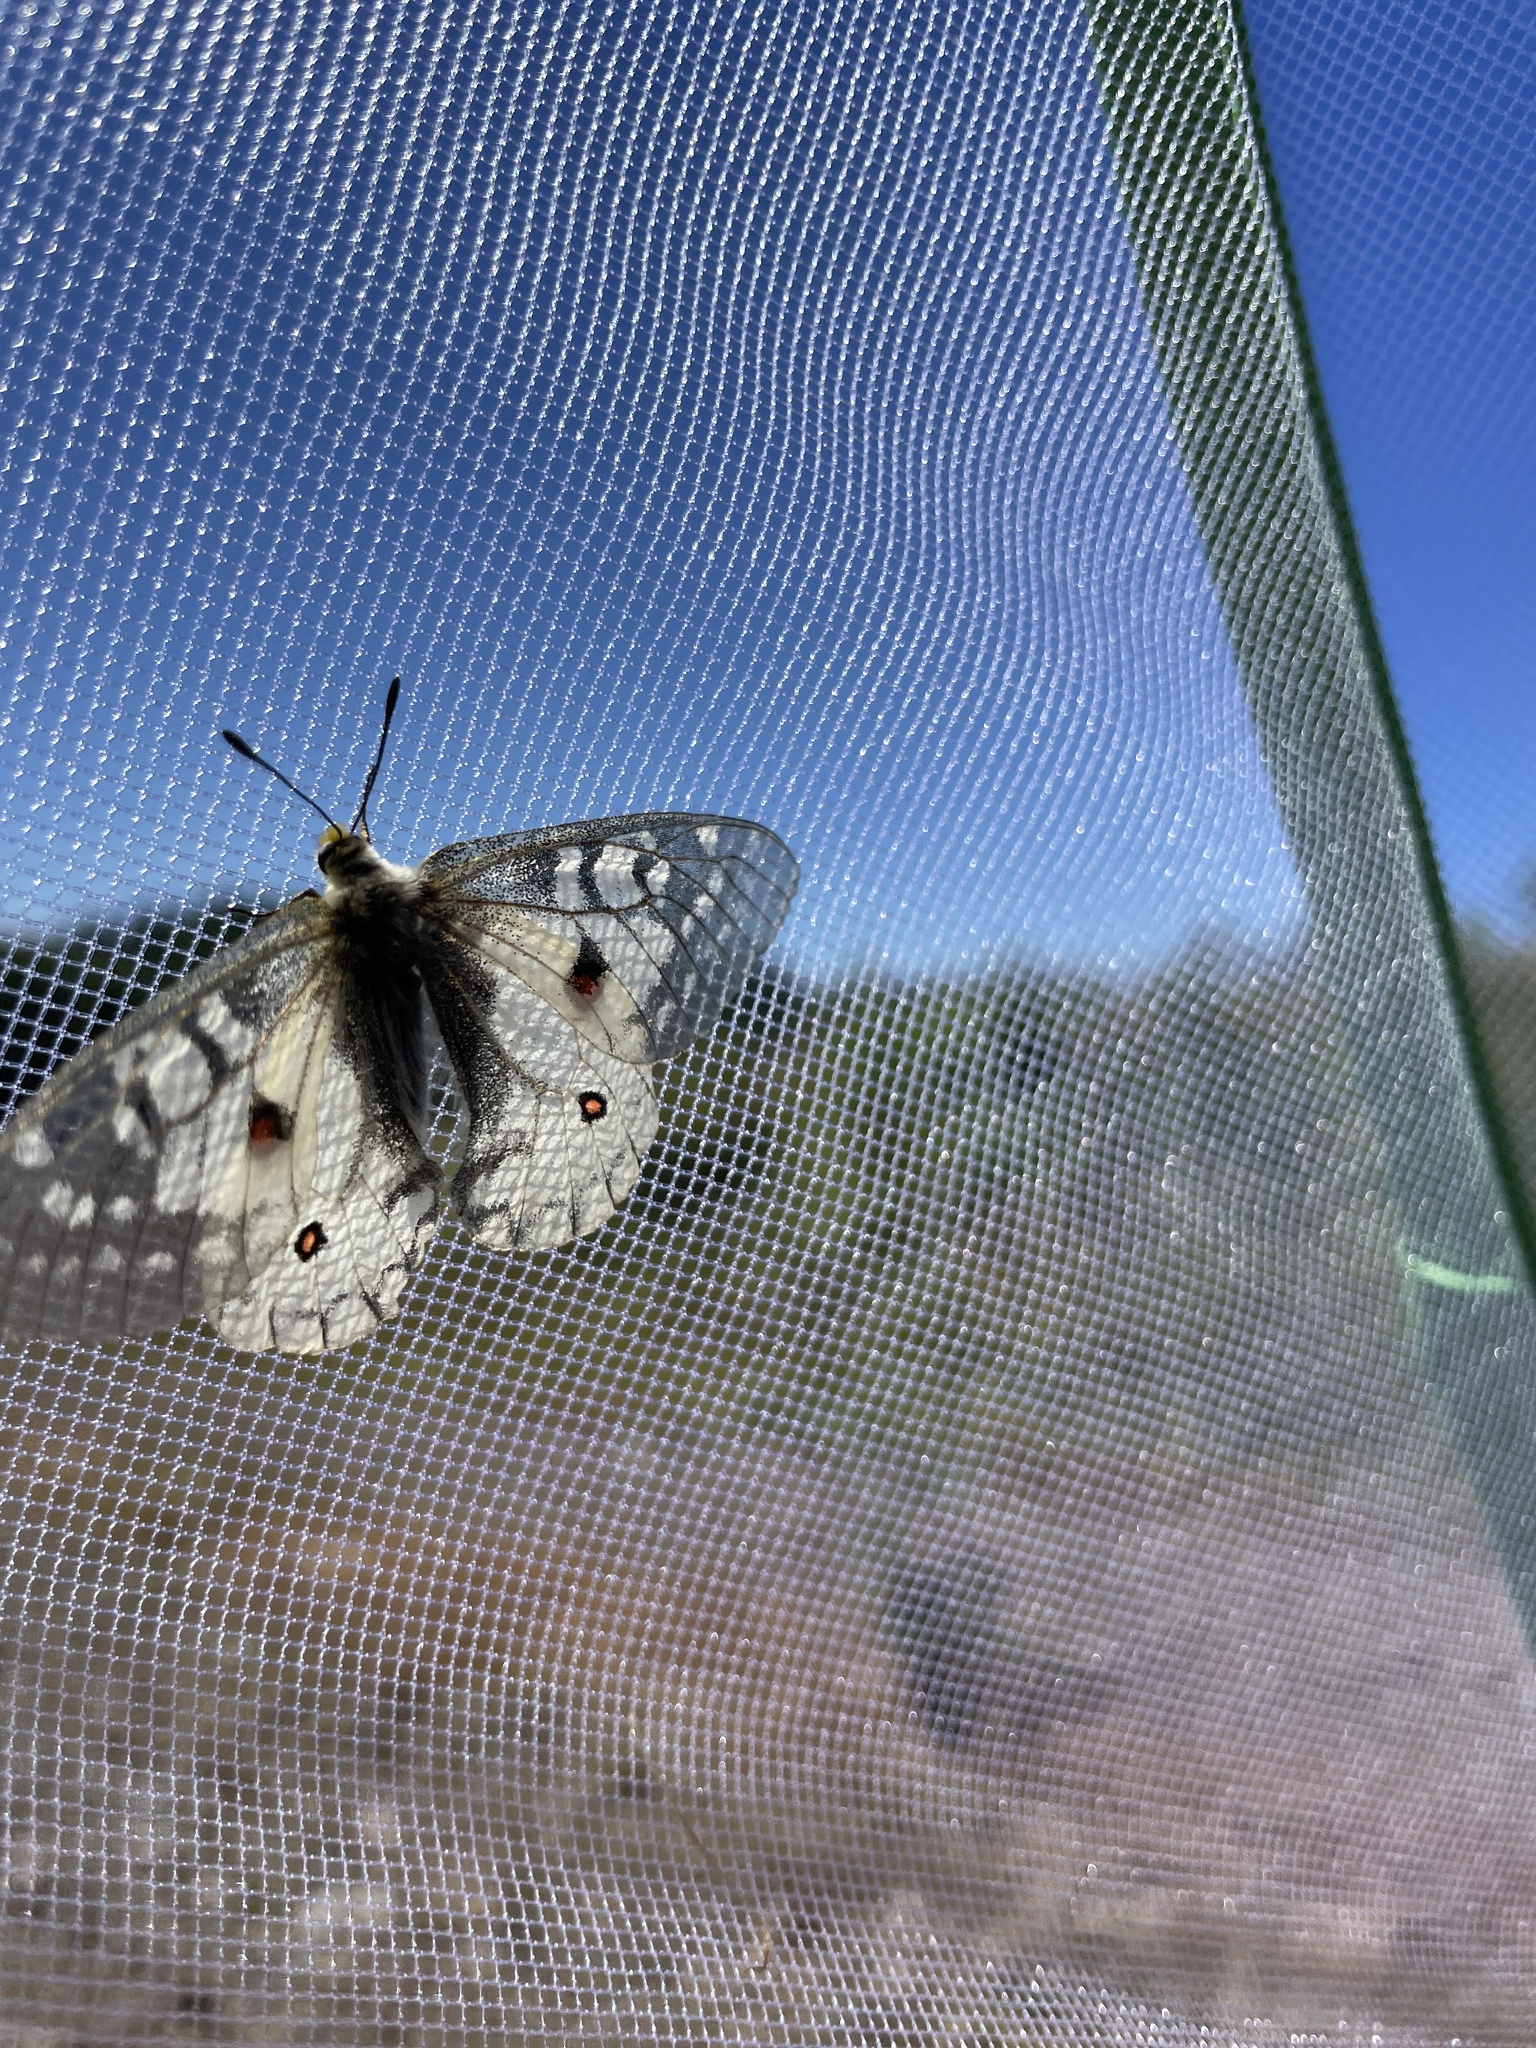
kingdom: Animalia
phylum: Arthropoda
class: Insecta
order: Lepidoptera
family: Papilionidae
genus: Parnassius
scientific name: Parnassius clodius
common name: American apollo
